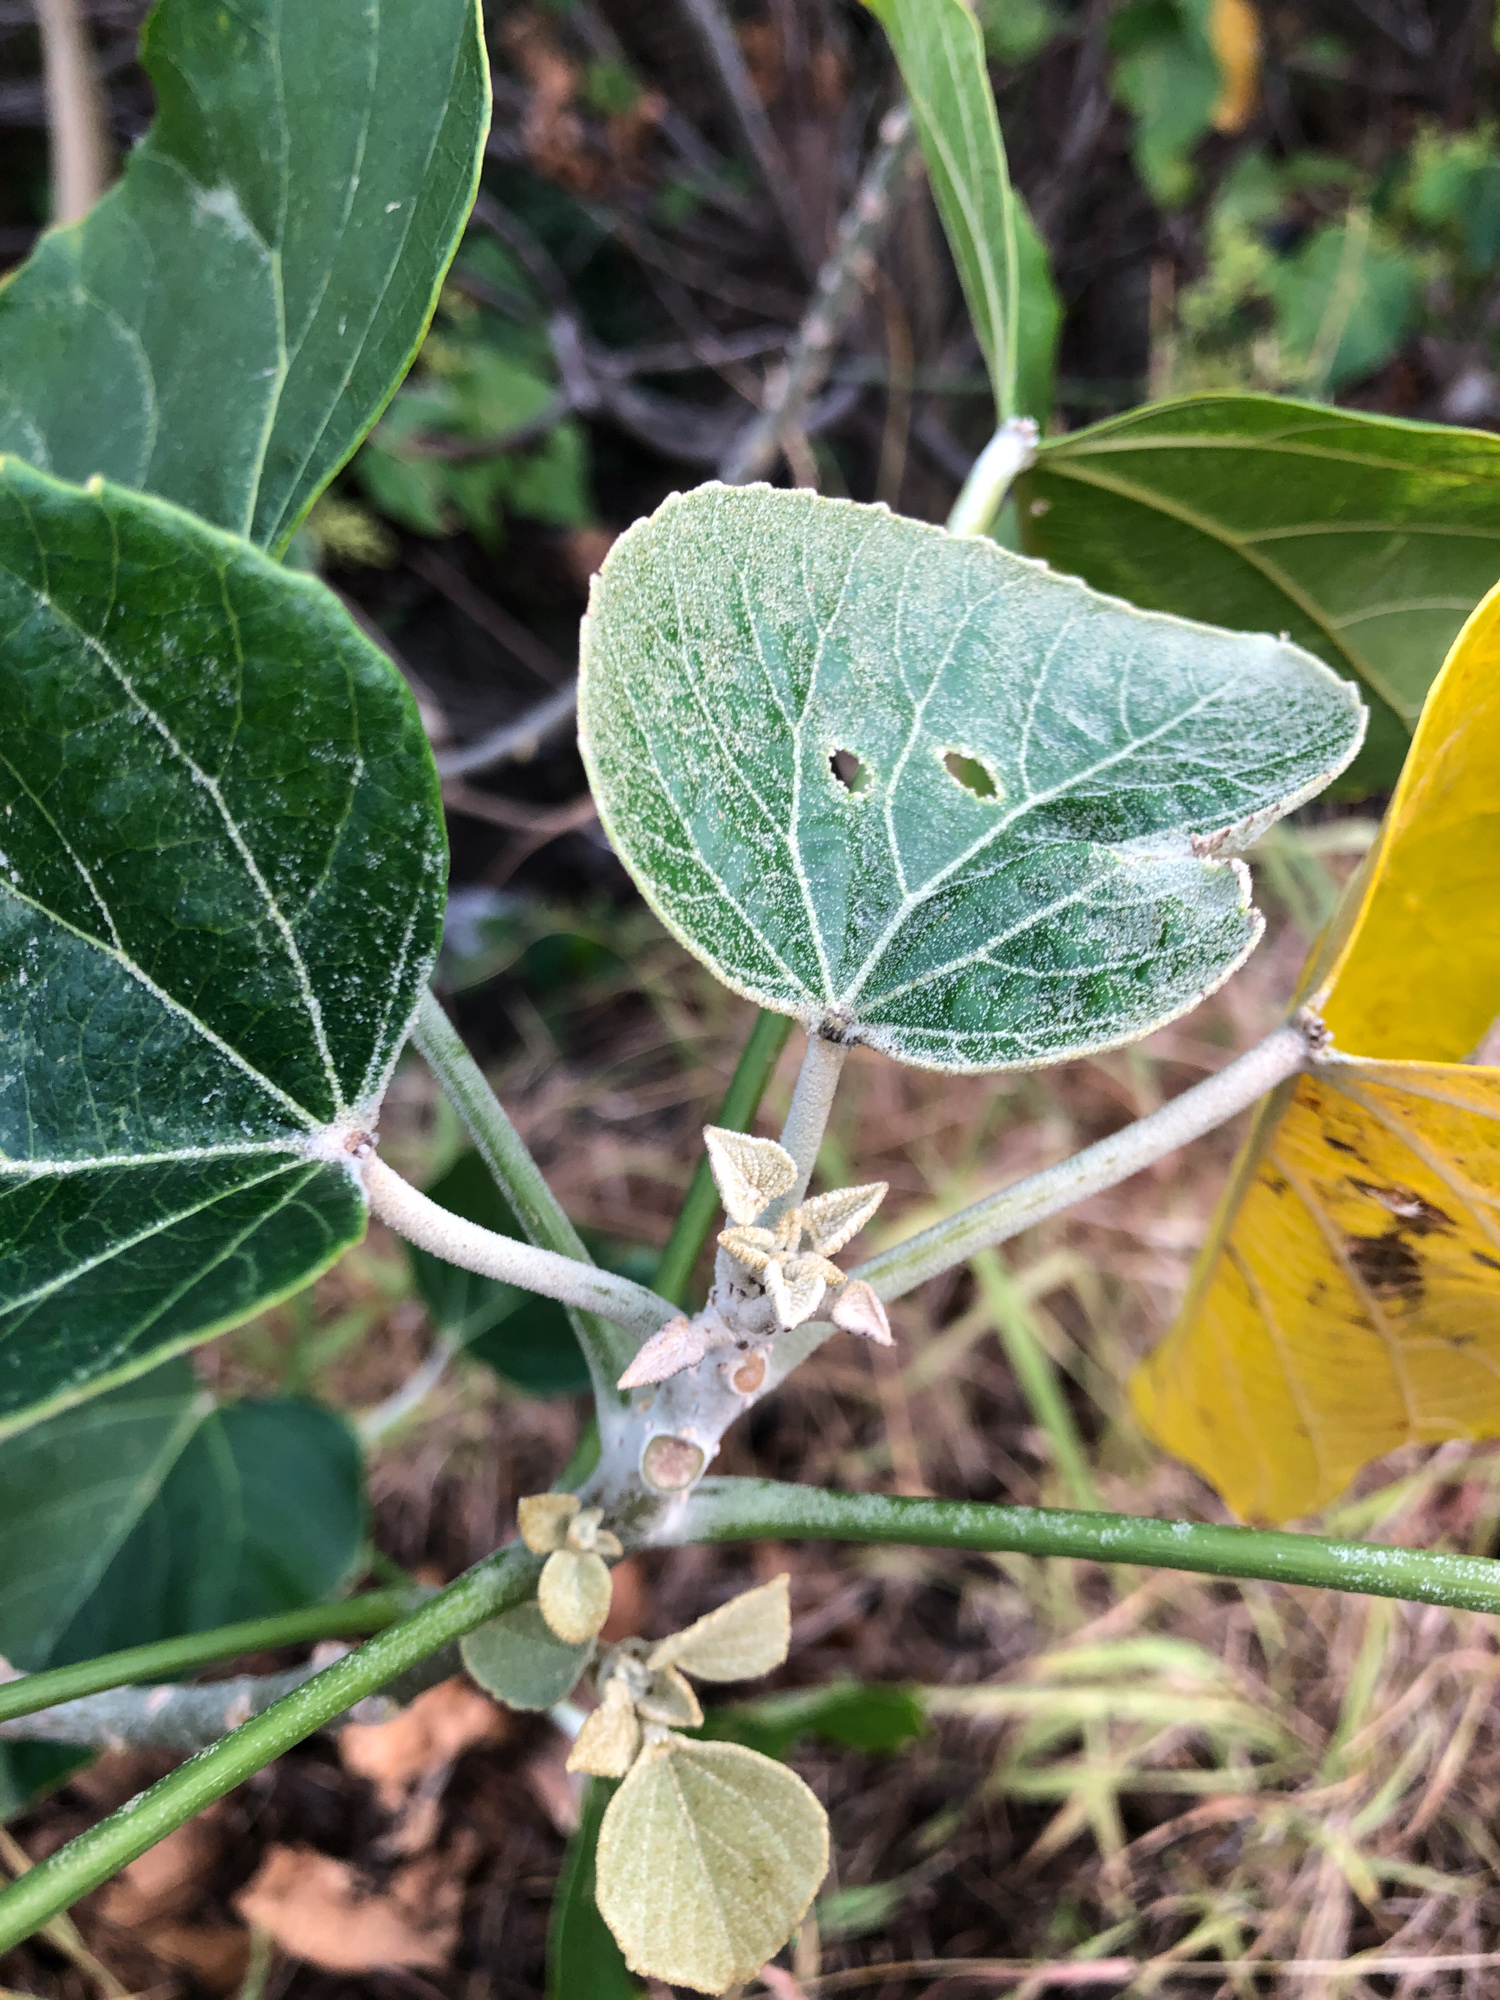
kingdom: Plantae
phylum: Tracheophyta
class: Magnoliopsida
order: Malpighiales
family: Euphorbiaceae
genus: Melanolepis
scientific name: Melanolepis multiglandulosa
